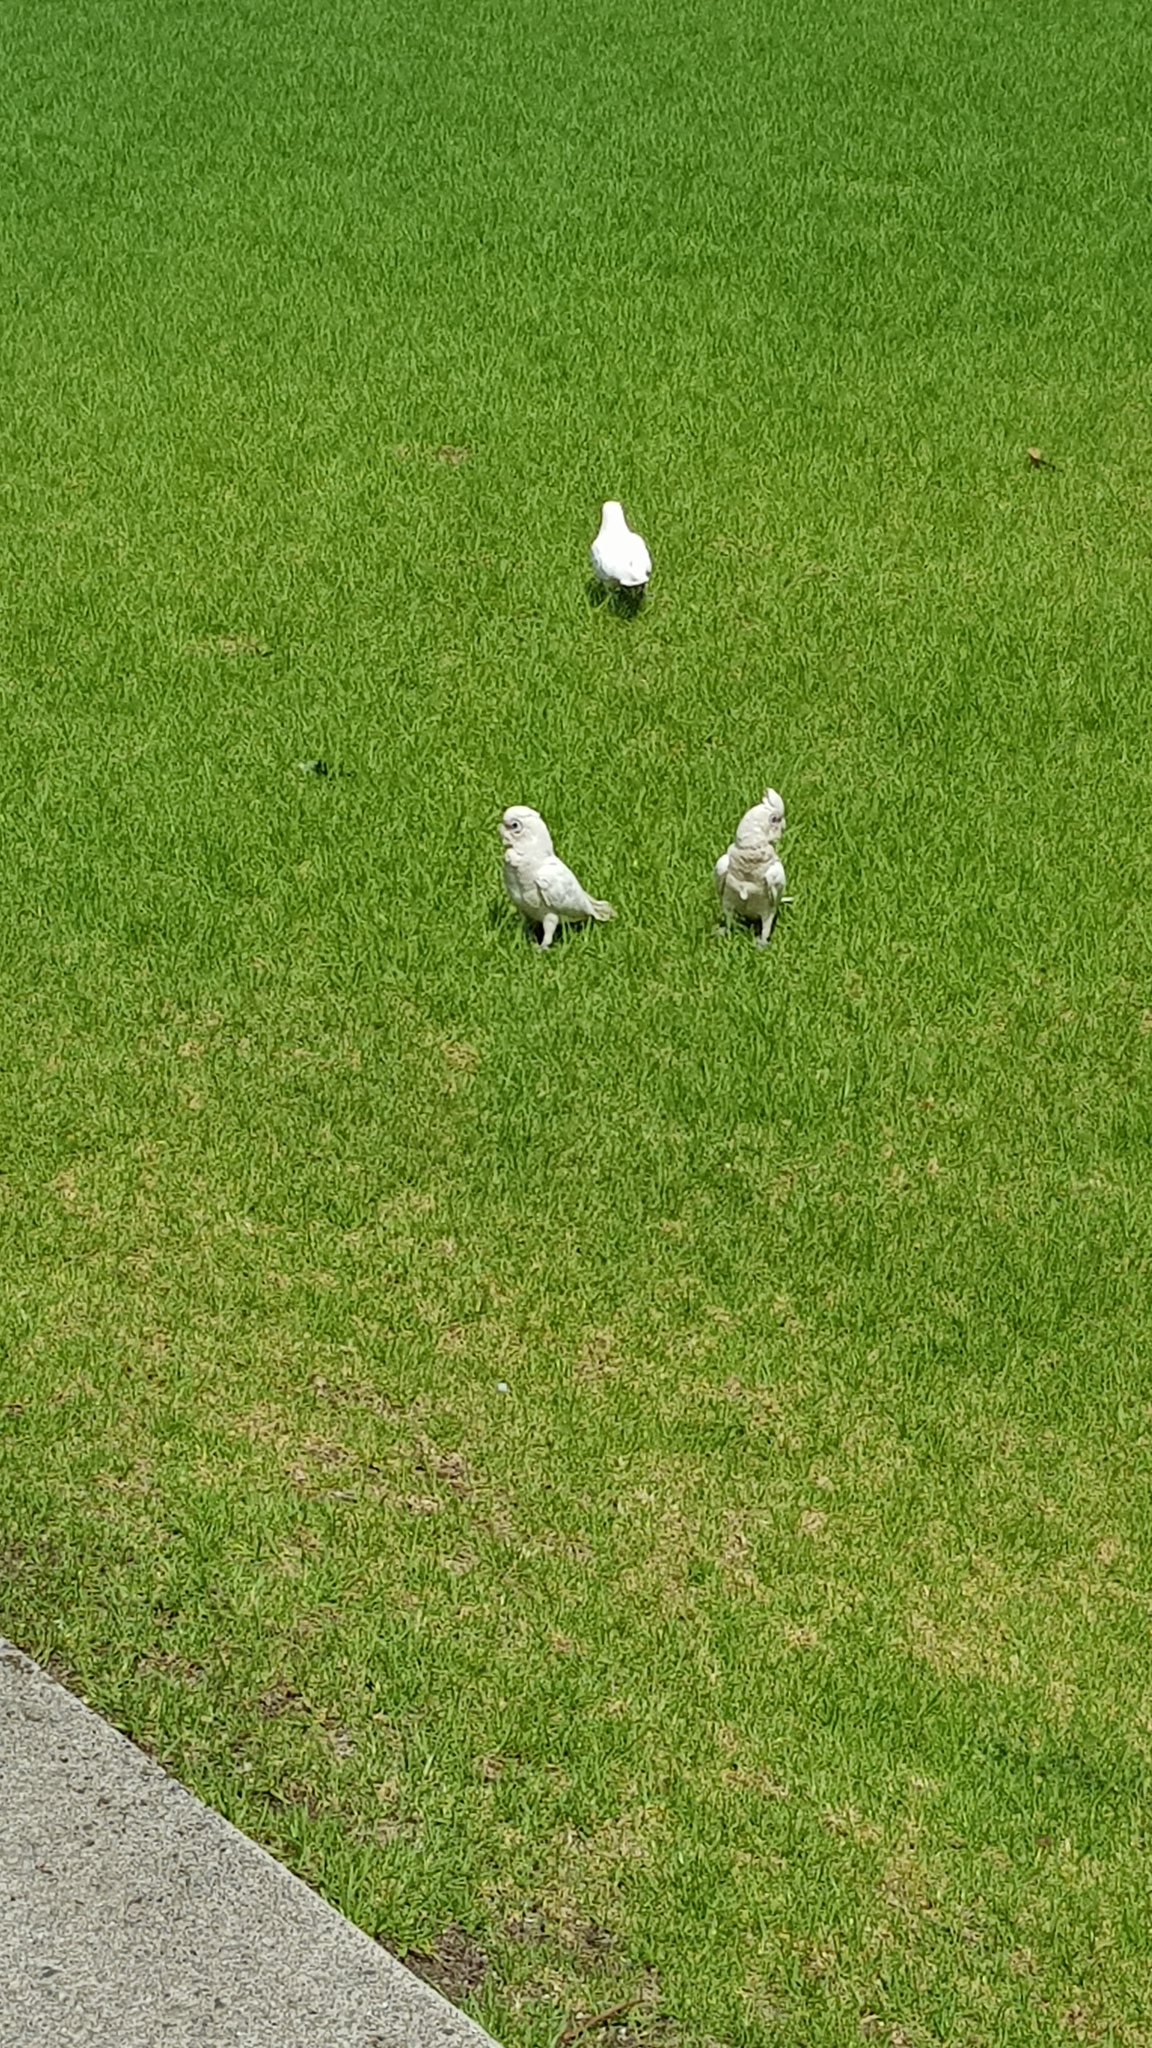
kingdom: Animalia
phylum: Chordata
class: Aves
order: Psittaciformes
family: Psittacidae
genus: Cacatua
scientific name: Cacatua tenuirostris
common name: Long-billed corella
